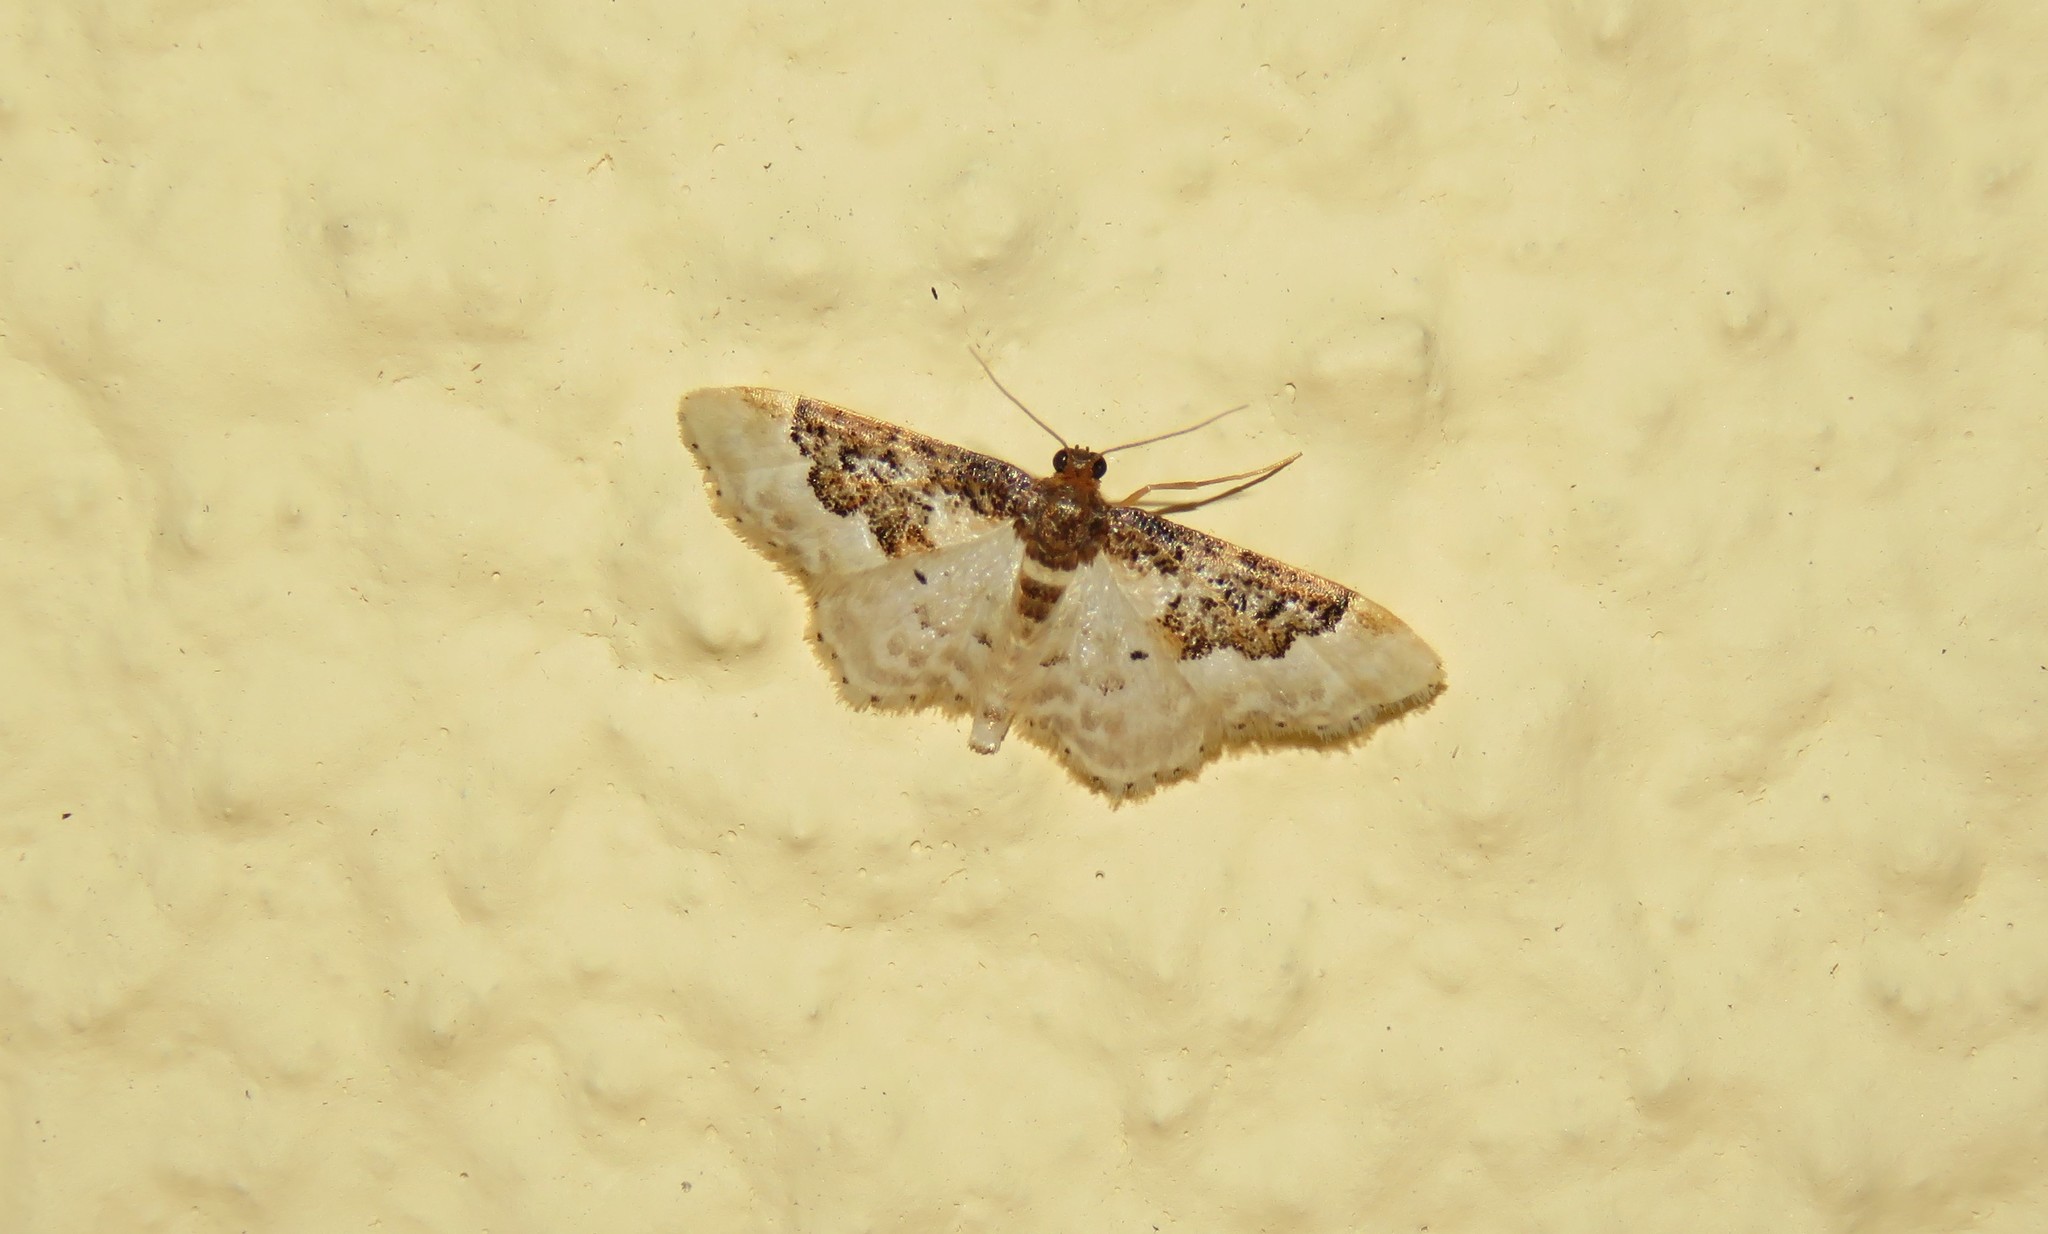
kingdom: Animalia
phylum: Arthropoda
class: Insecta
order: Lepidoptera
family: Geometridae
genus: Idaea
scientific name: Idaea rusticata
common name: Least carpet
